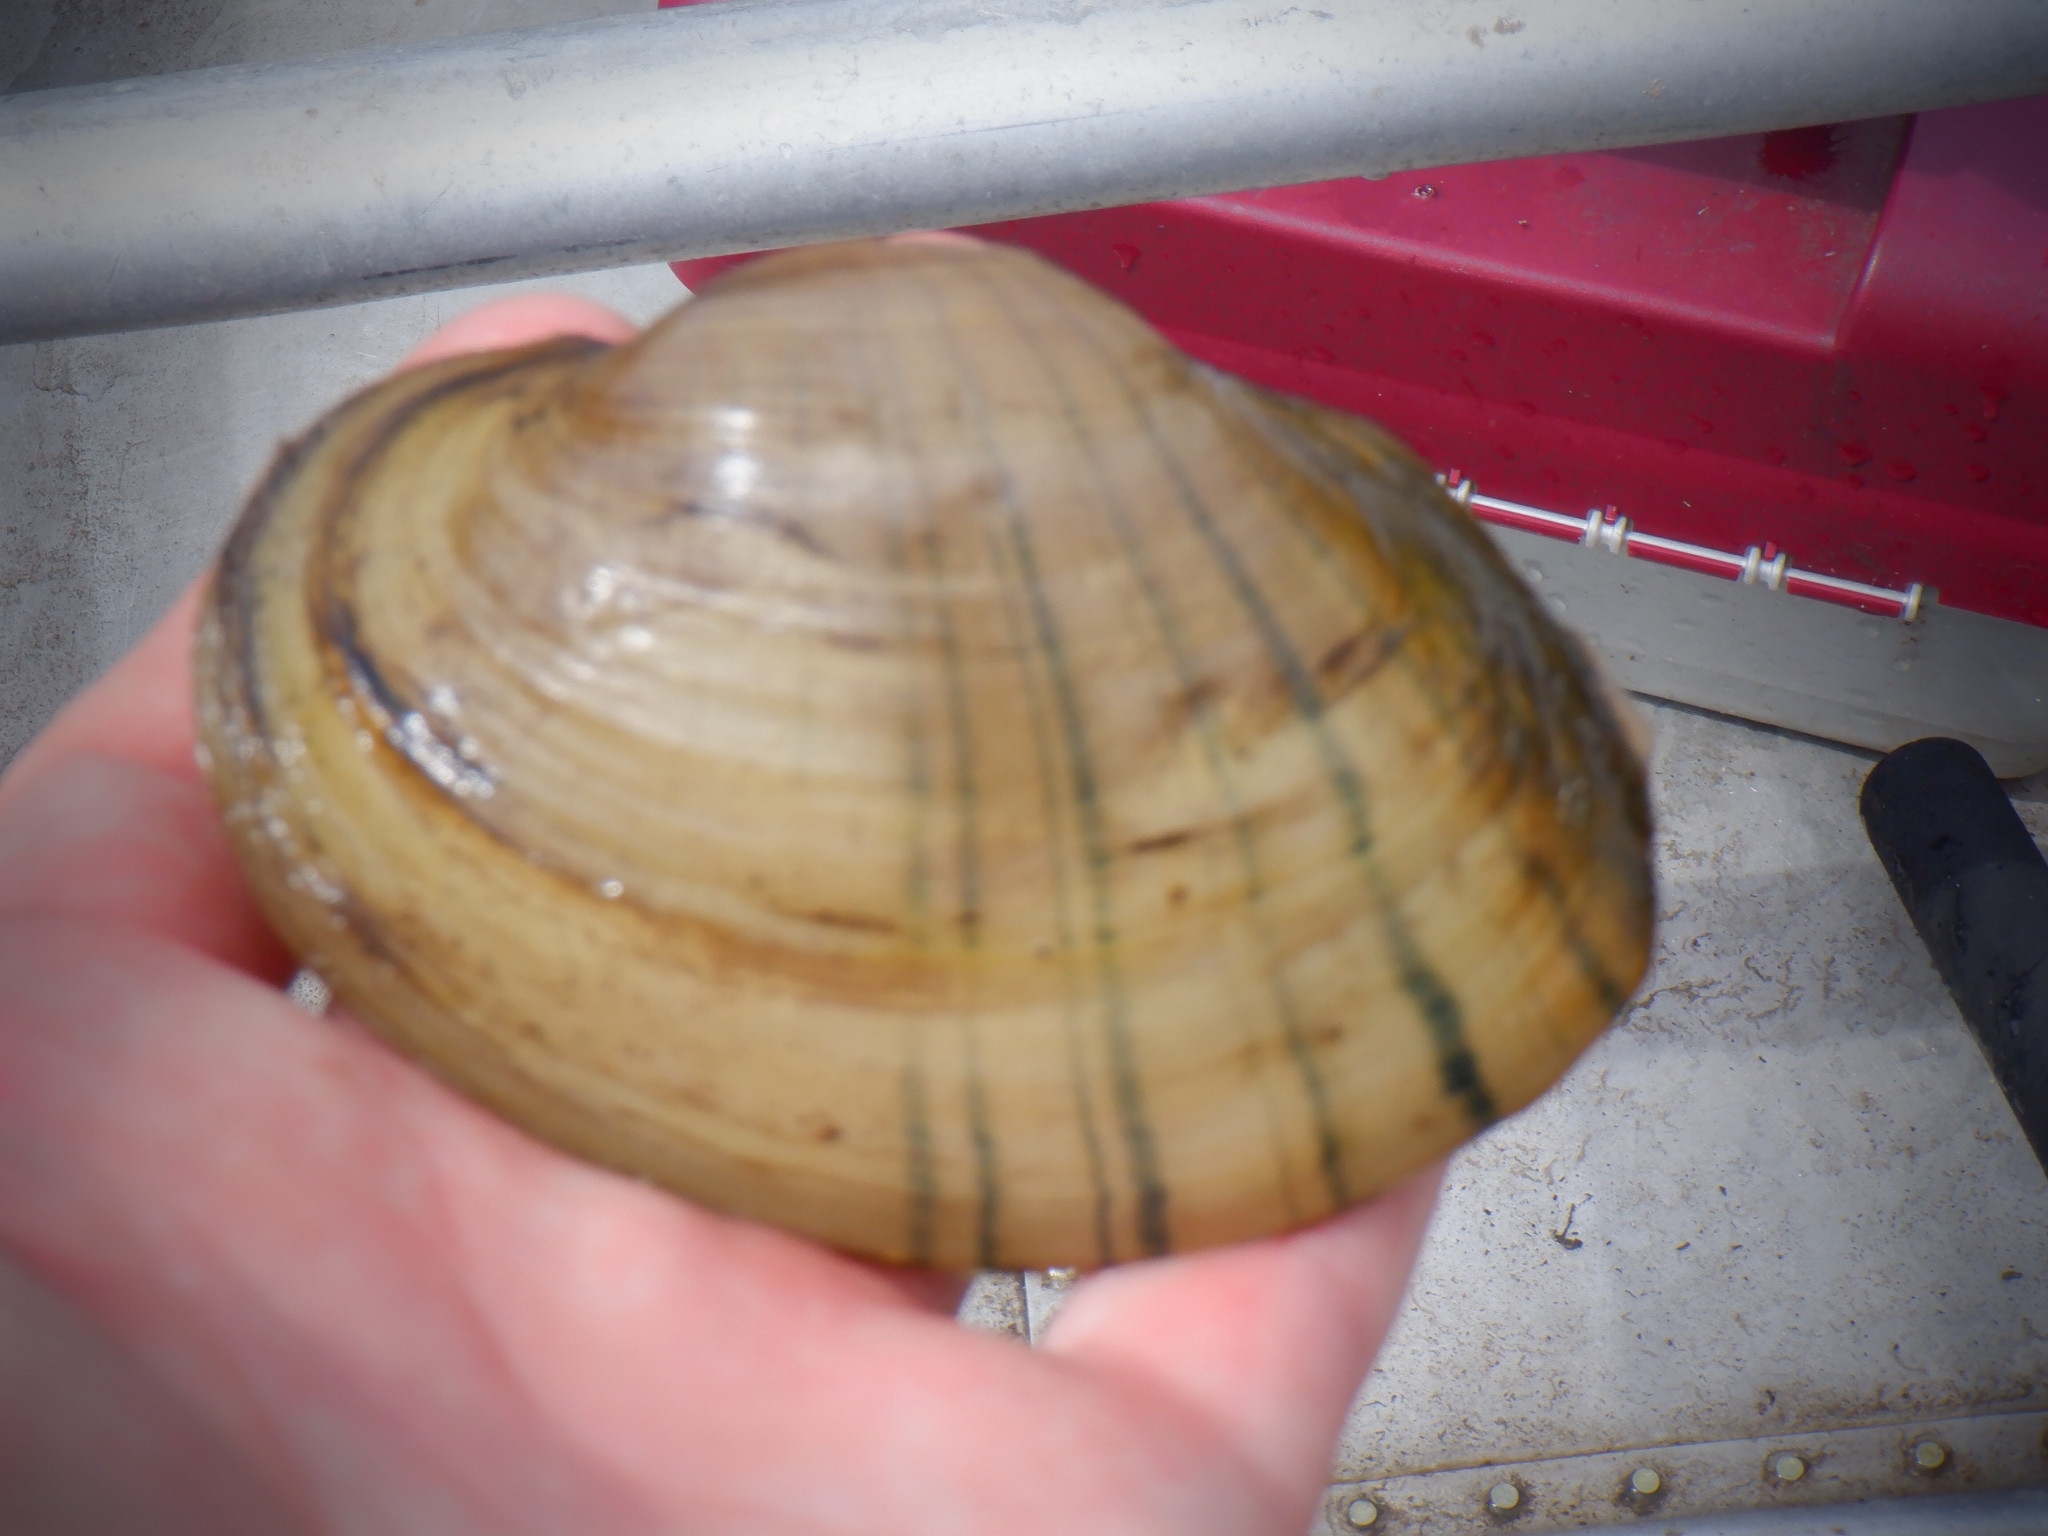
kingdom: Animalia
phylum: Mollusca
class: Bivalvia
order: Unionida
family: Unionidae
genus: Lampsilis
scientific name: Lampsilis cardium
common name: Plain pocketbook
